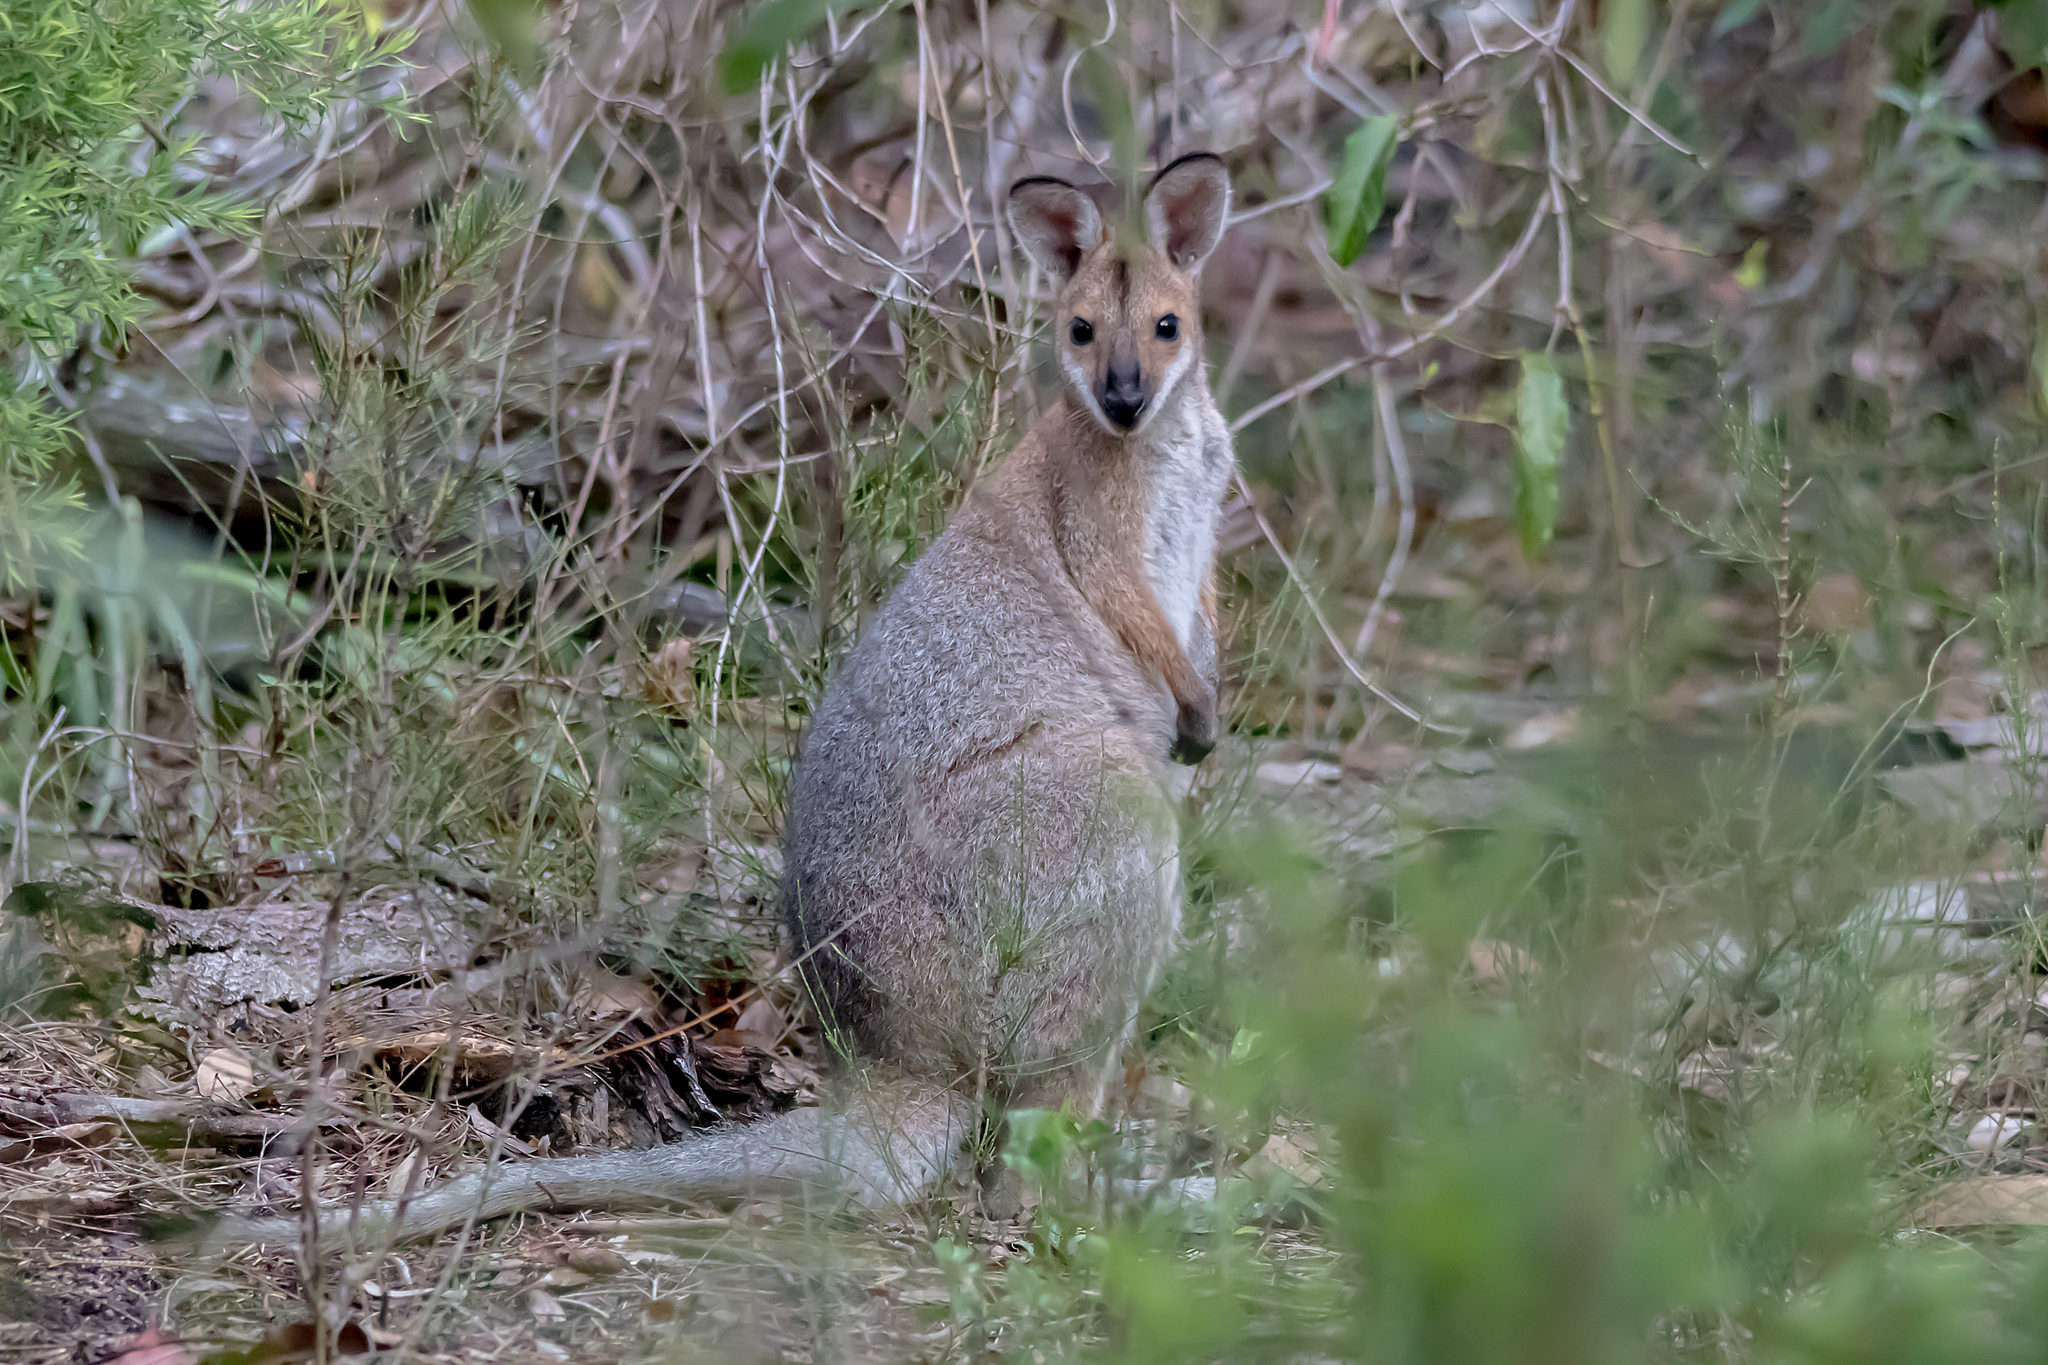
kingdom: Animalia
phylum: Chordata
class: Mammalia
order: Diprotodontia
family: Macropodidae
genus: Notamacropus
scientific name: Notamacropus rufogriseus
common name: Red-necked wallaby
